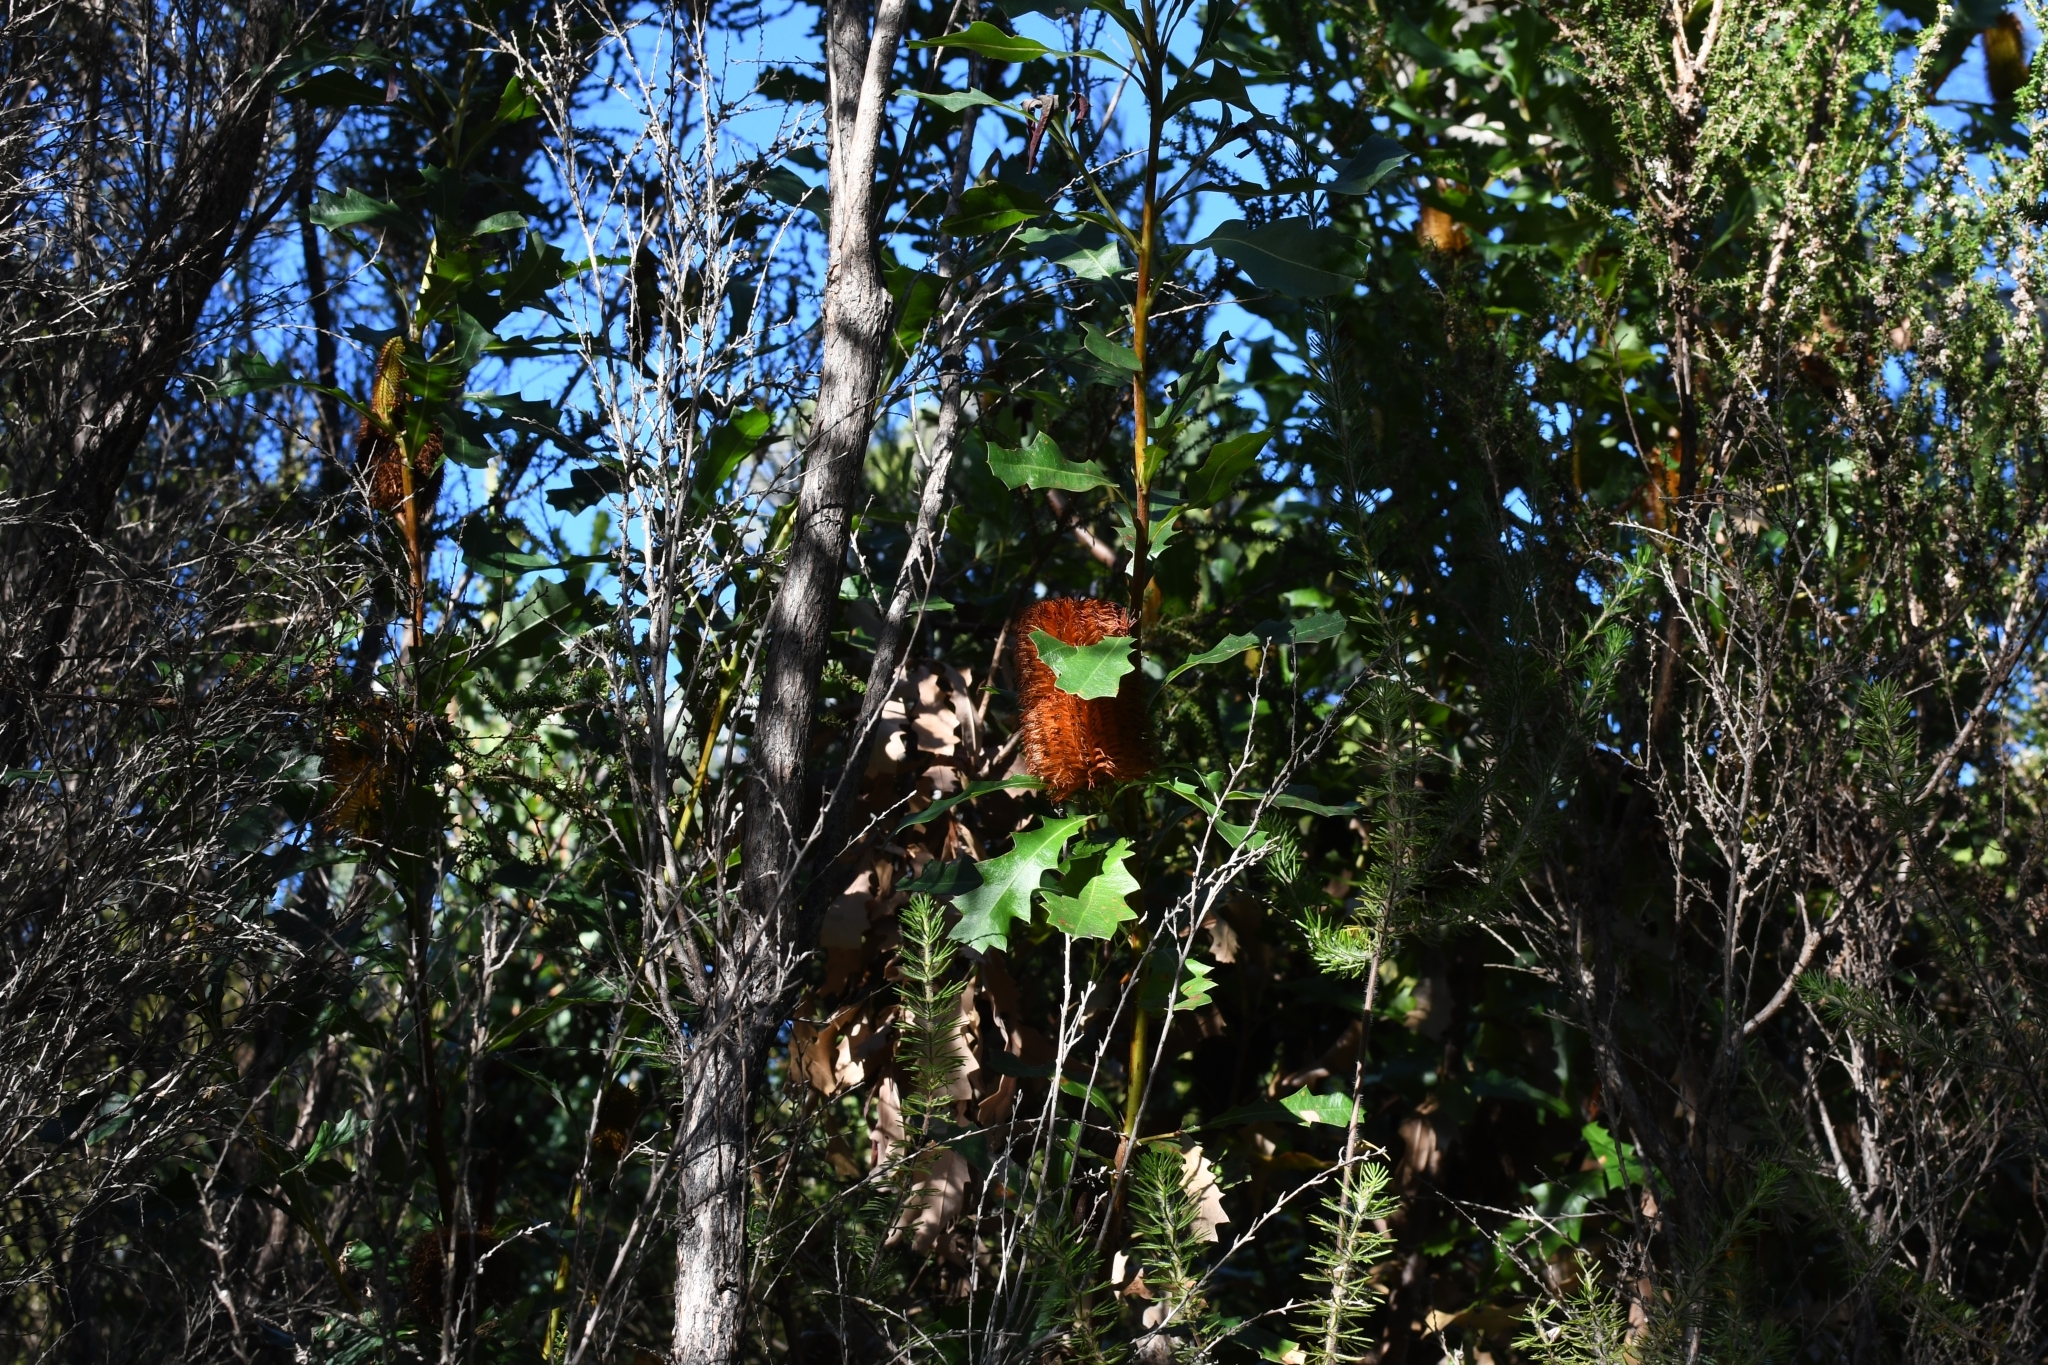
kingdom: Plantae
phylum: Tracheophyta
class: Magnoliopsida
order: Proteales
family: Proteaceae
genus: Banksia
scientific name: Banksia quercifolia
